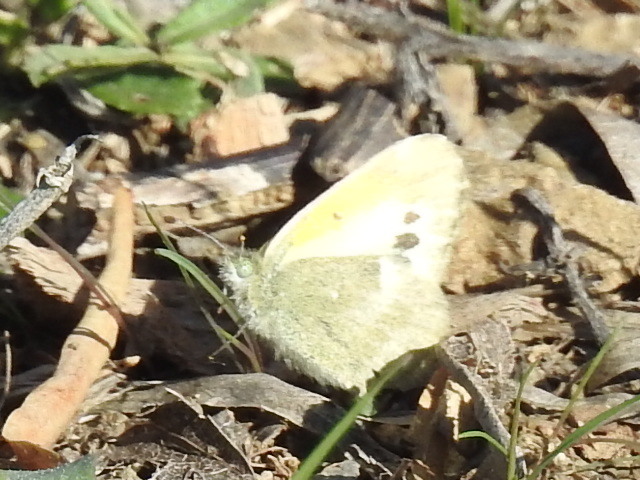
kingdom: Animalia
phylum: Arthropoda
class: Insecta
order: Lepidoptera
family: Pieridae
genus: Nathalis
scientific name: Nathalis iole
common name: Dainty sulphur
